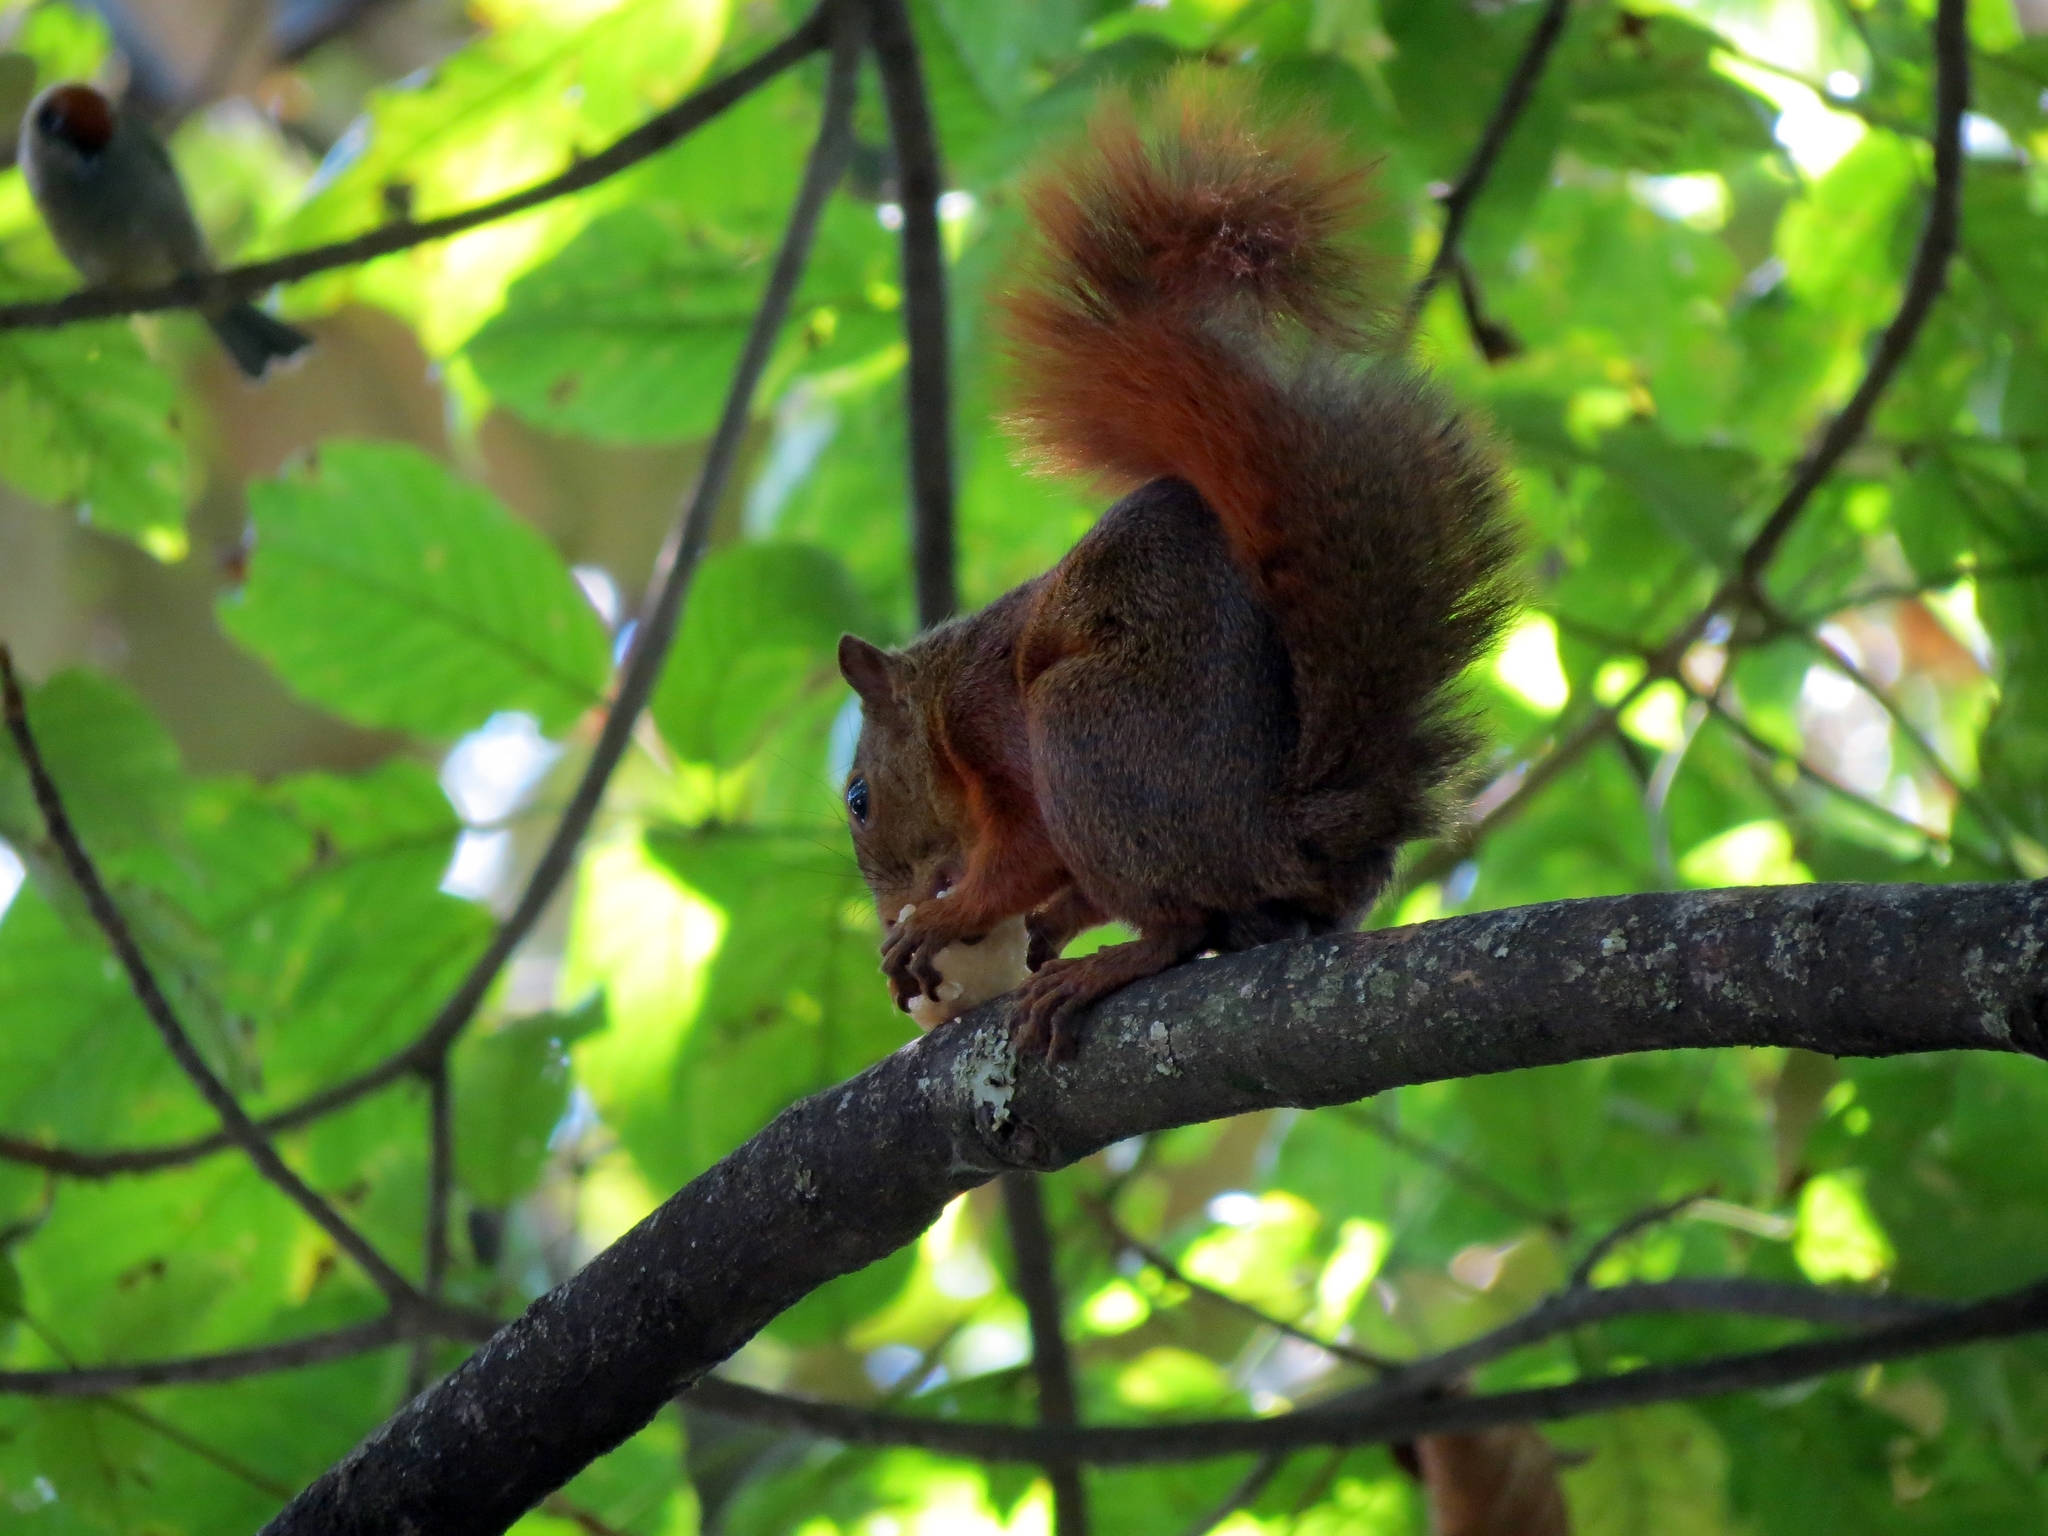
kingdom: Animalia
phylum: Chordata
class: Mammalia
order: Rodentia
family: Sciuridae
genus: Sciurus
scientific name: Sciurus granatensis
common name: Red-tailed squirrel
